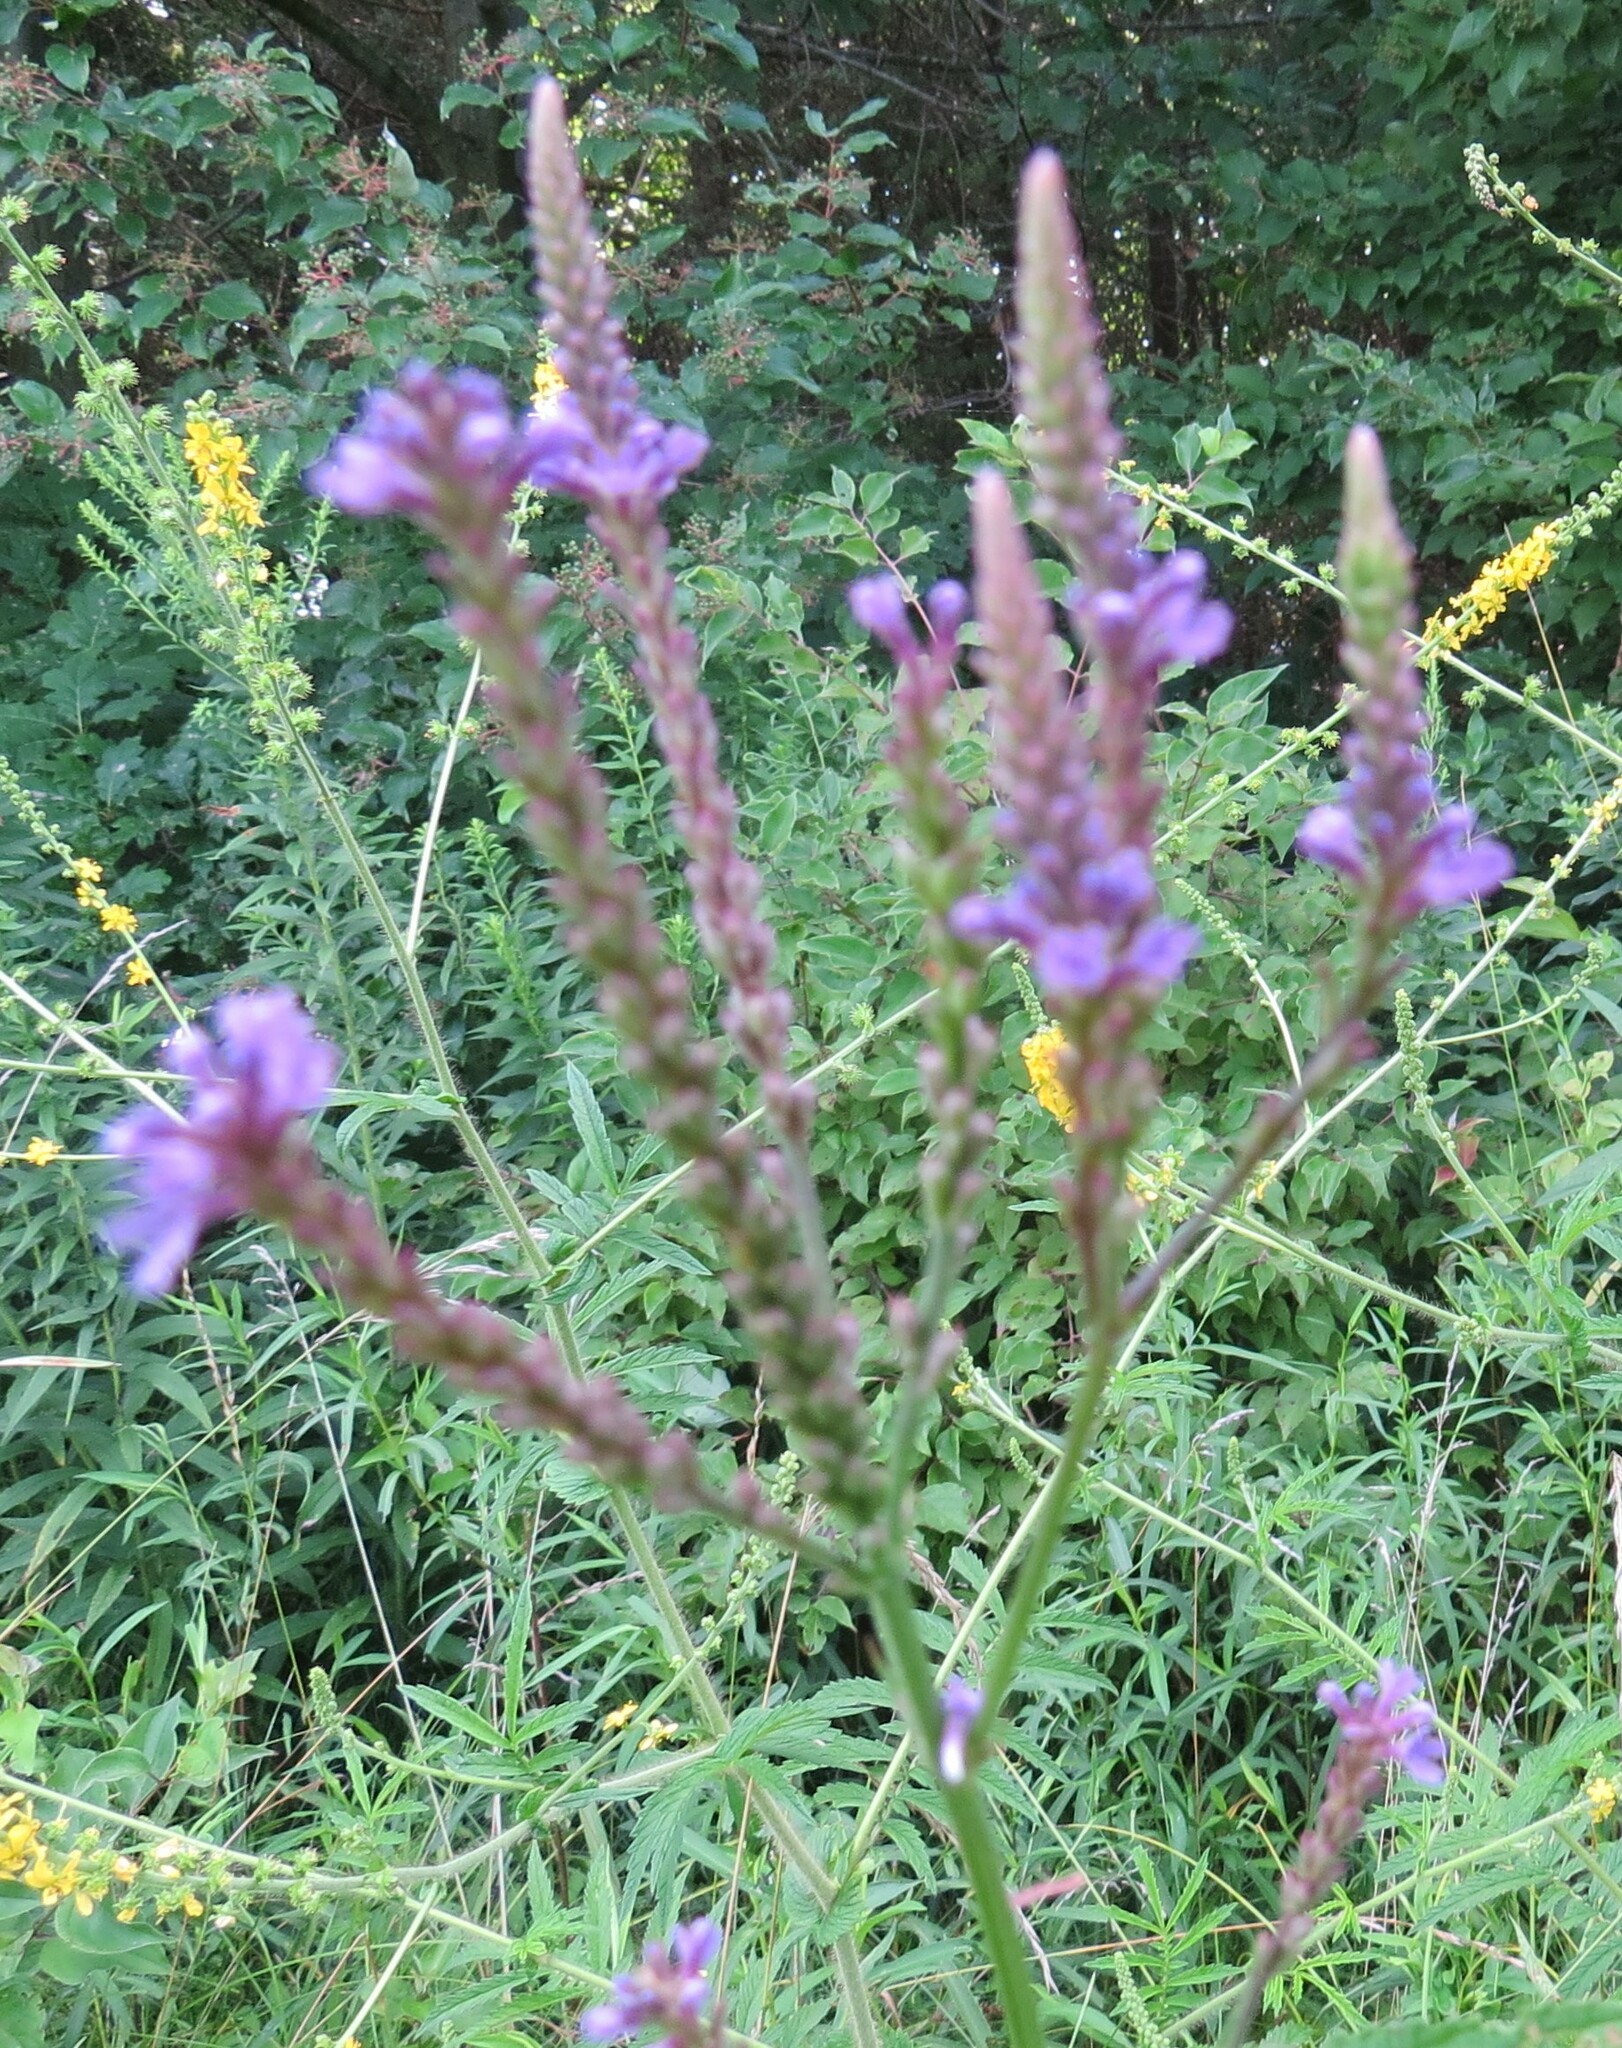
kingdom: Plantae
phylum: Tracheophyta
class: Magnoliopsida
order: Lamiales
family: Verbenaceae
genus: Verbena
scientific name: Verbena hastata
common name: American blue vervain
